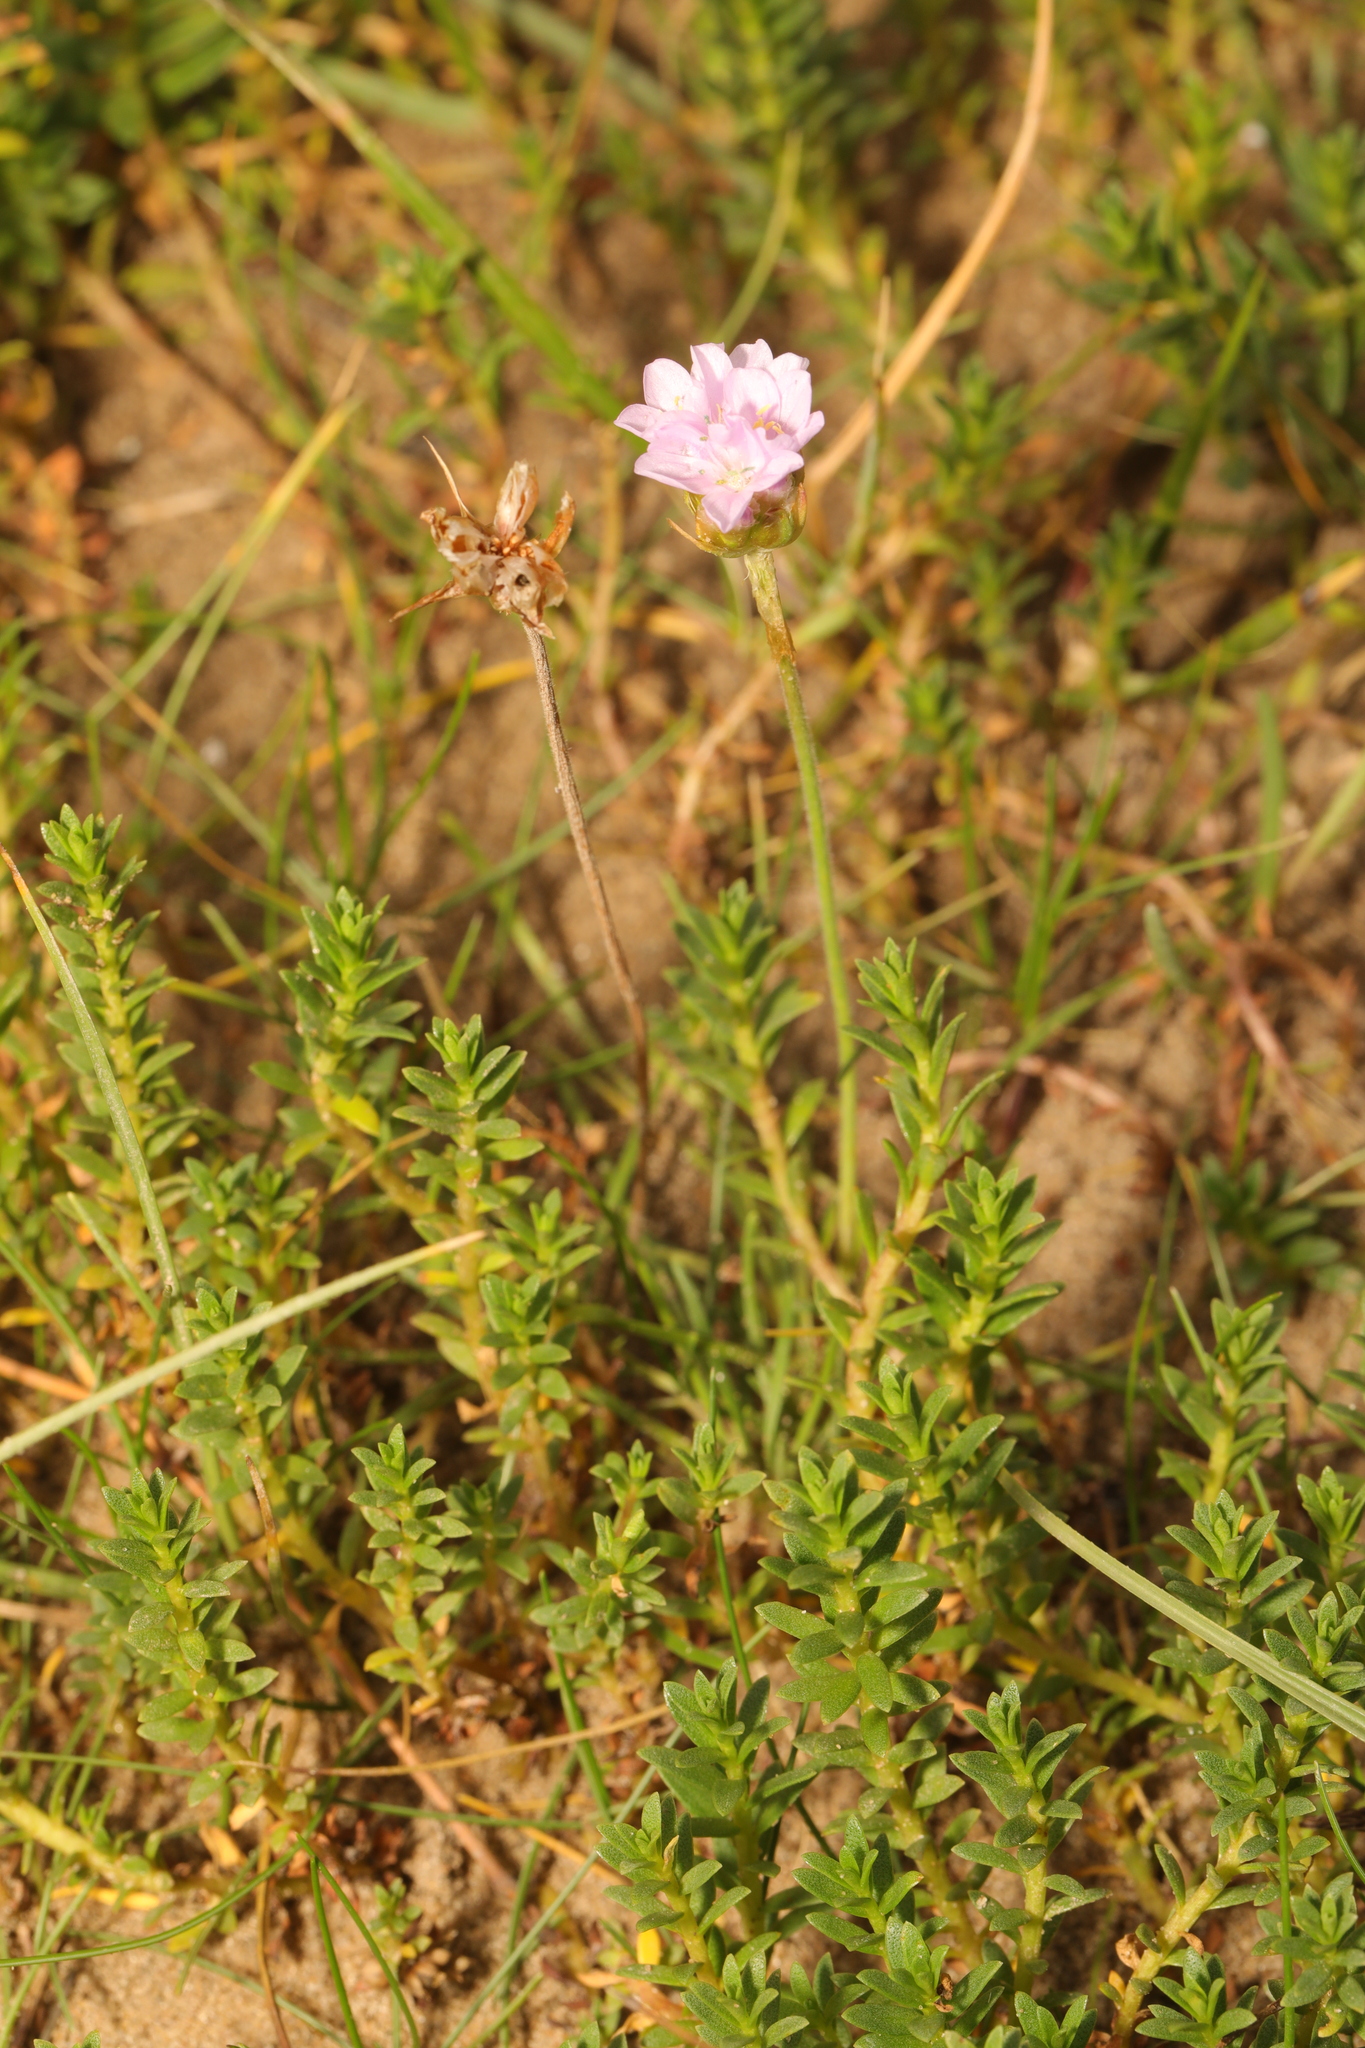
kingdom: Plantae
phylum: Tracheophyta
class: Magnoliopsida
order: Caryophyllales
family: Plumbaginaceae
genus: Armeria
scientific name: Armeria maritima
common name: Thrift
